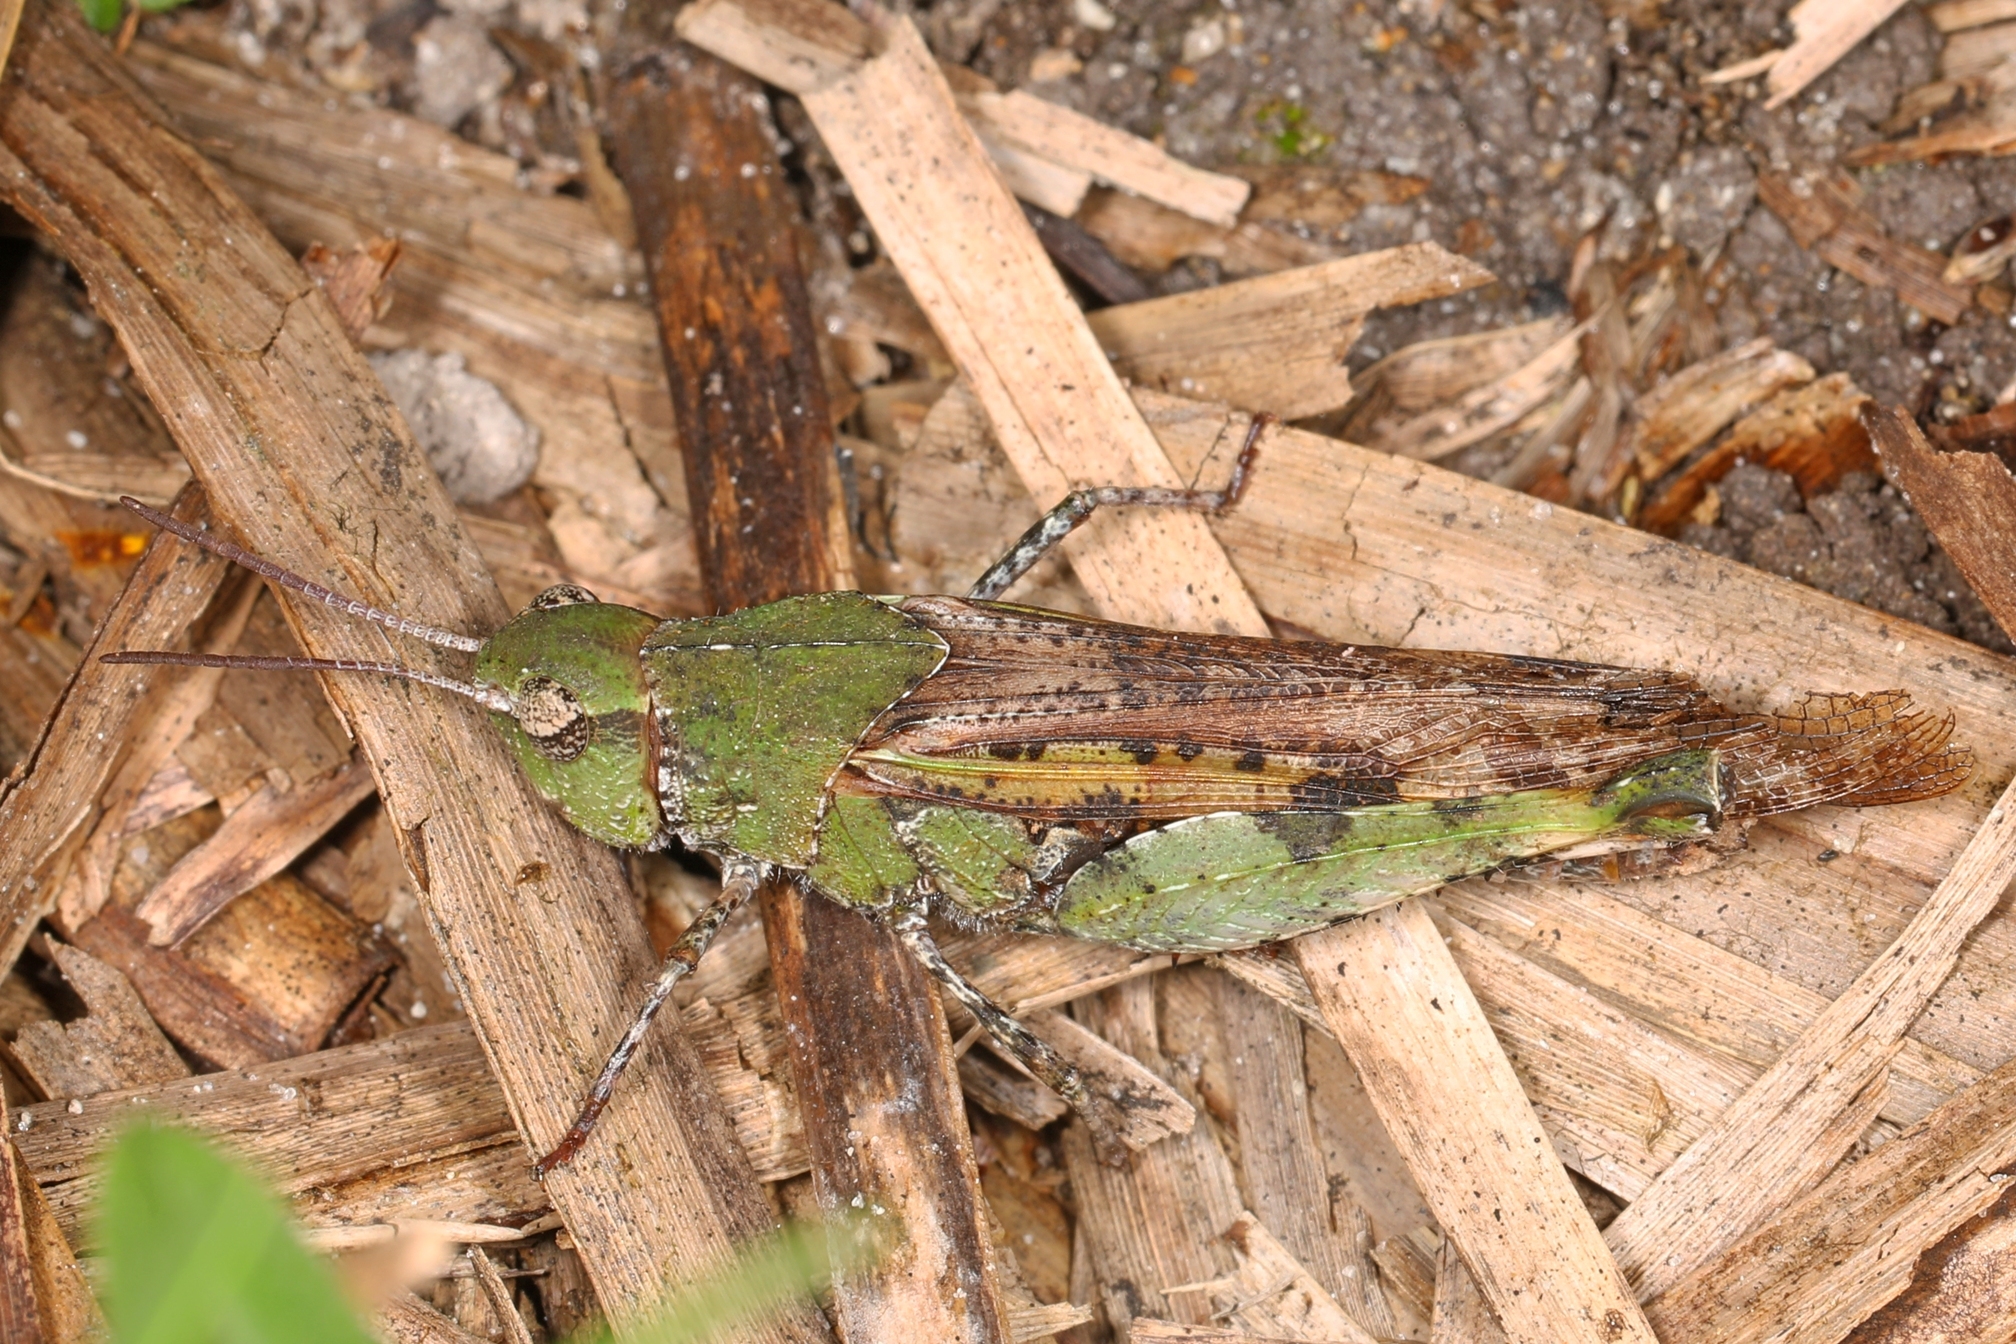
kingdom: Animalia
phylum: Arthropoda
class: Insecta
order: Orthoptera
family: Acrididae
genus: Chortophaga
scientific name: Chortophaga australior
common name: Southern green-striped grasshopper
